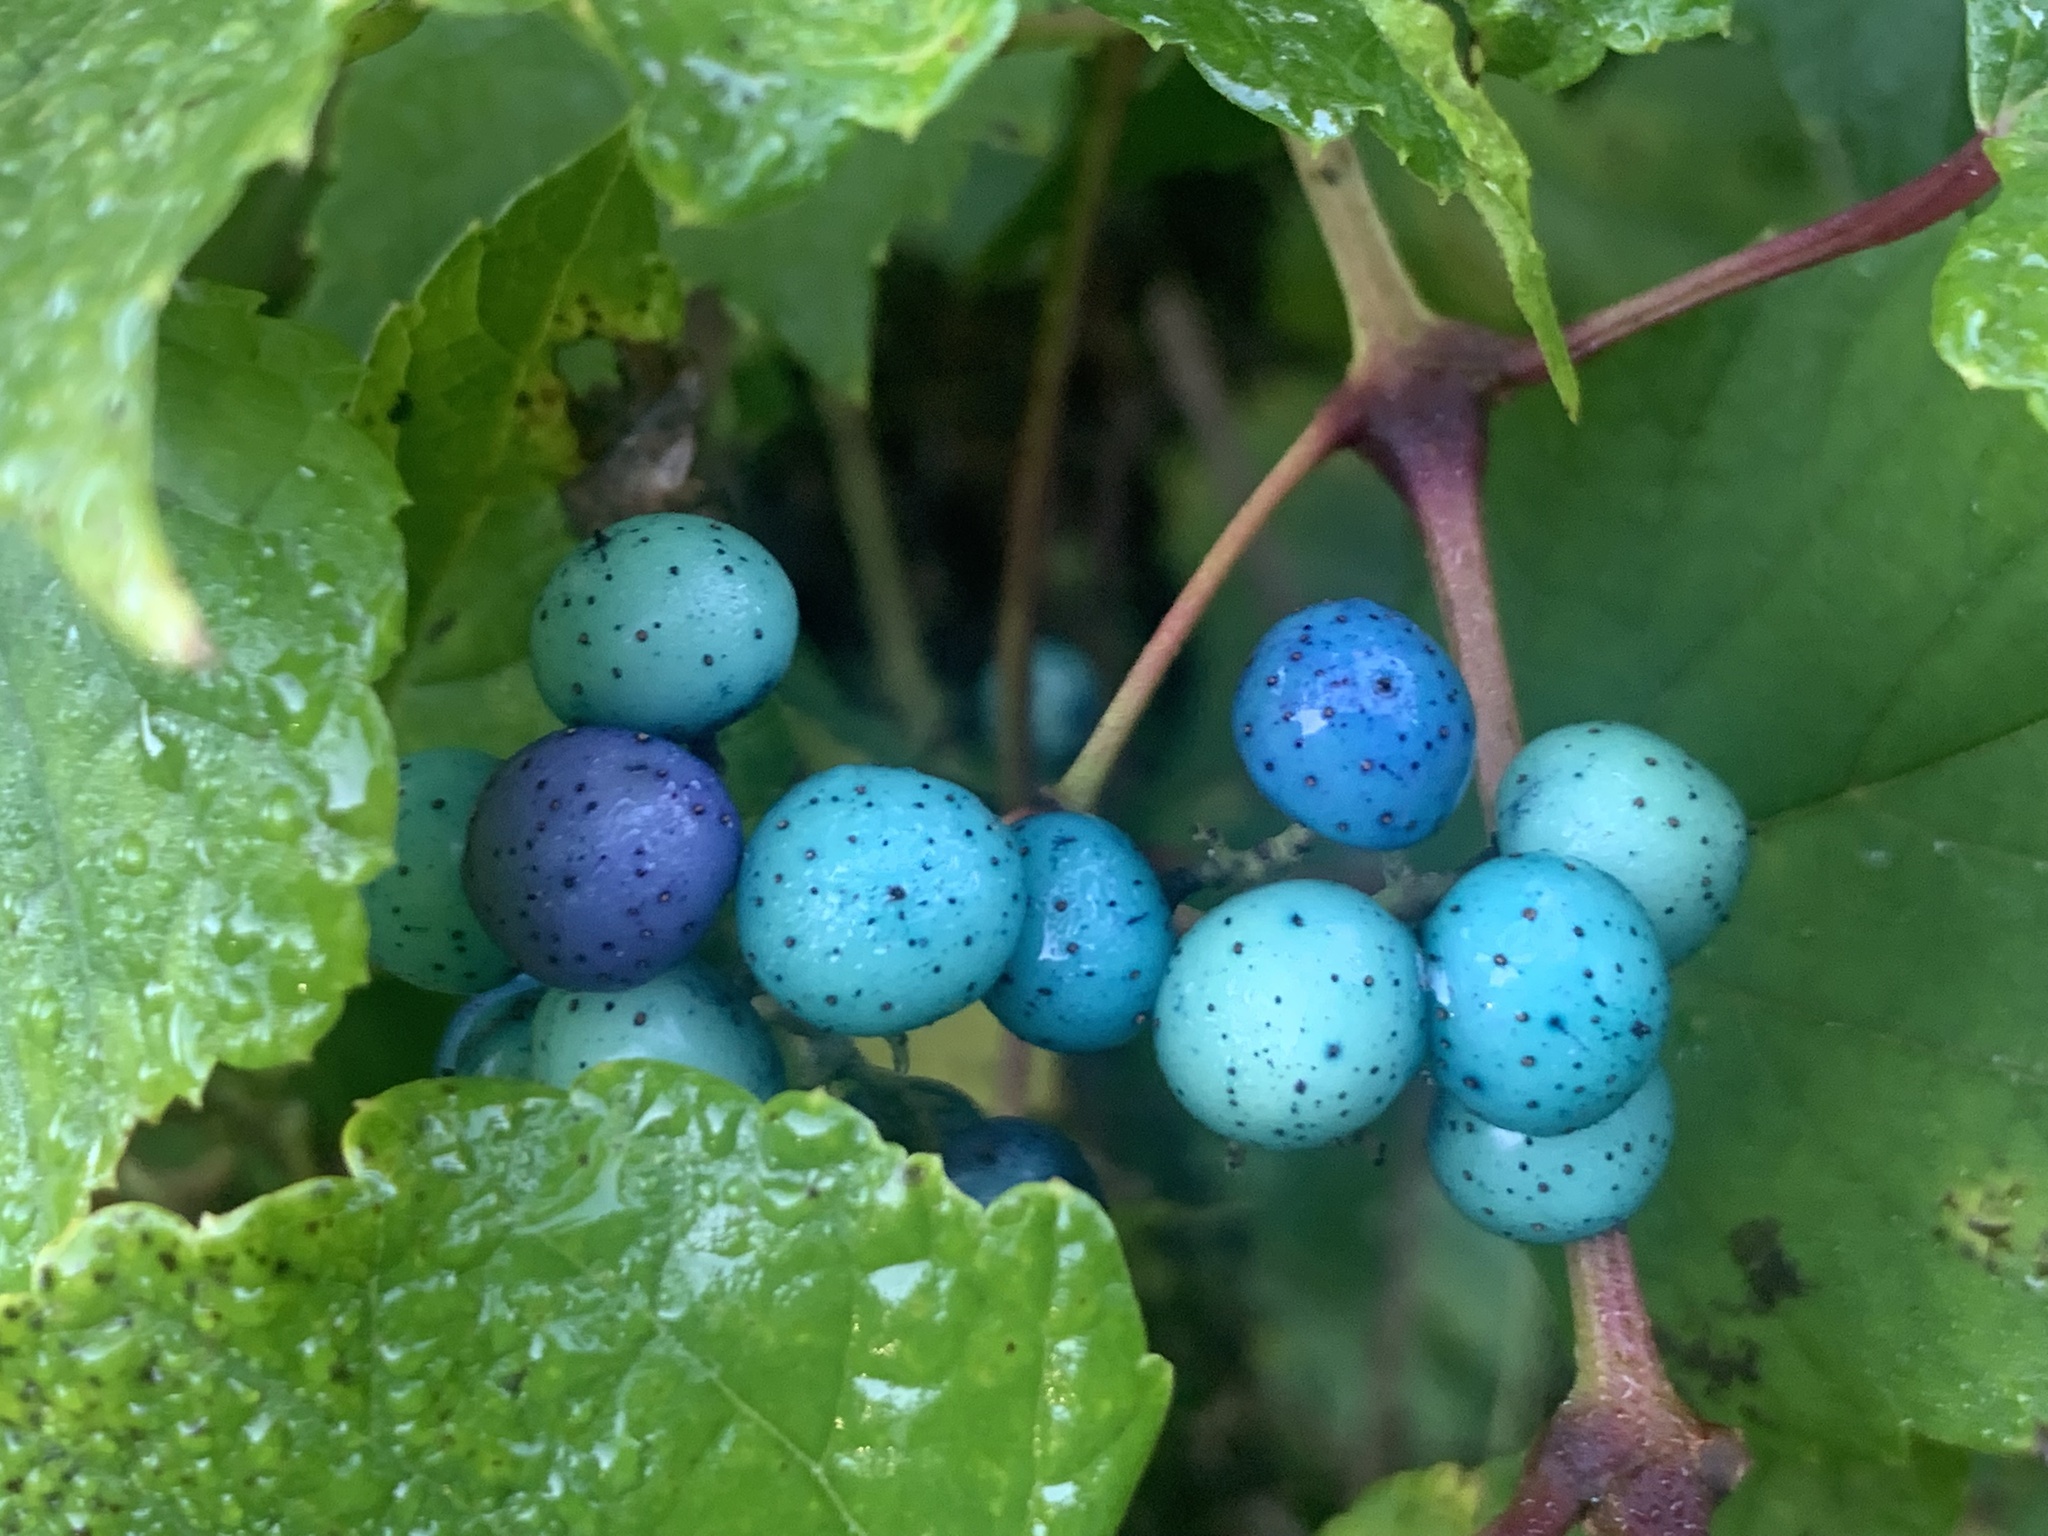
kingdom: Plantae
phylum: Tracheophyta
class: Magnoliopsida
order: Vitales
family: Vitaceae
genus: Ampelopsis
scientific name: Ampelopsis glandulosa
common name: Amur peppervine
